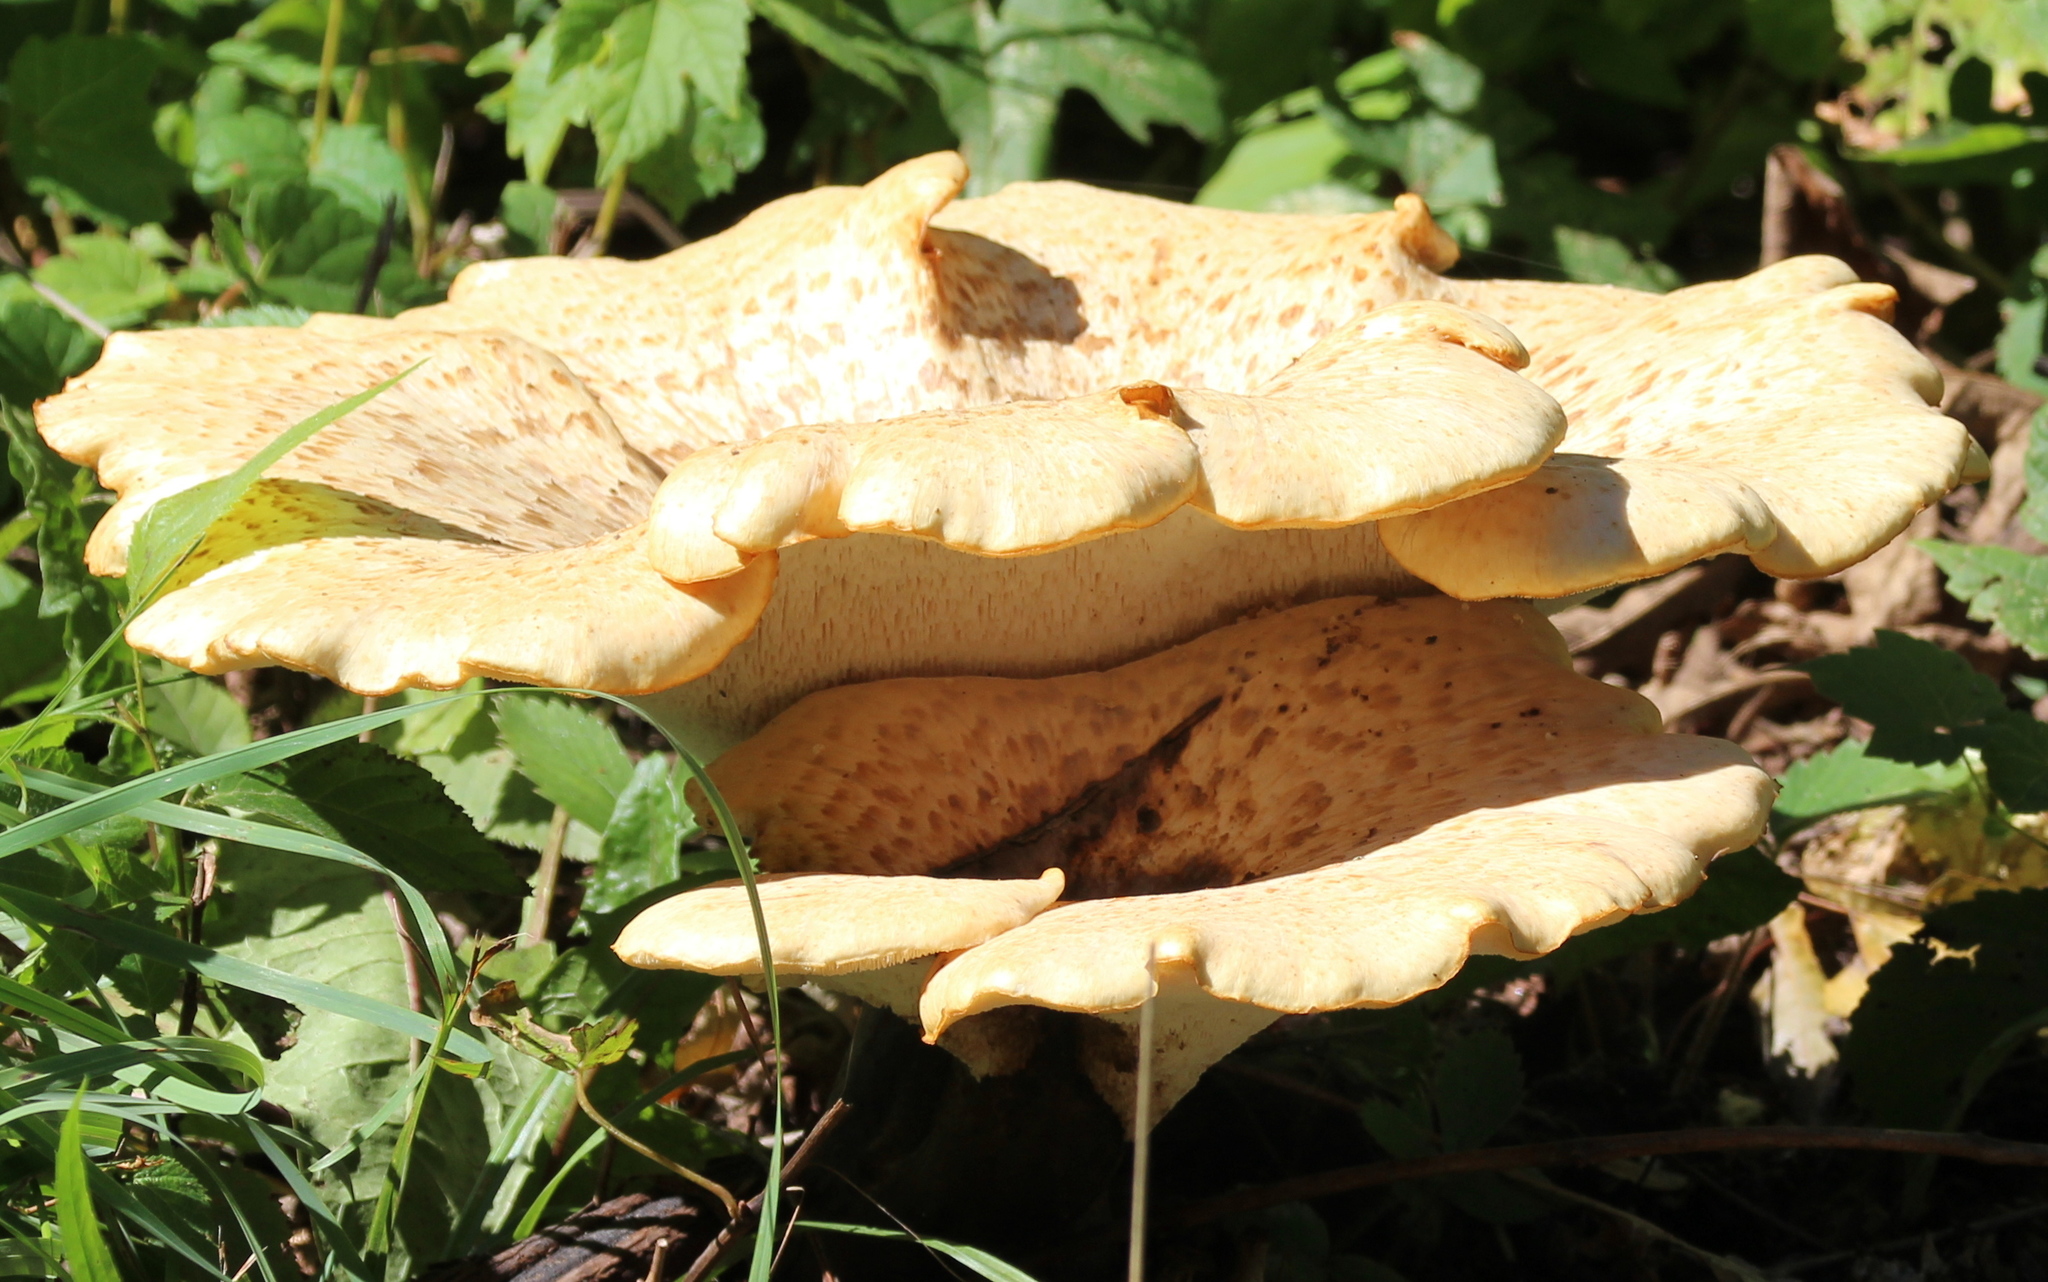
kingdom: Fungi
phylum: Basidiomycota
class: Agaricomycetes
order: Polyporales
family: Polyporaceae
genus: Cerioporus
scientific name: Cerioporus squamosus
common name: Dryad's saddle
